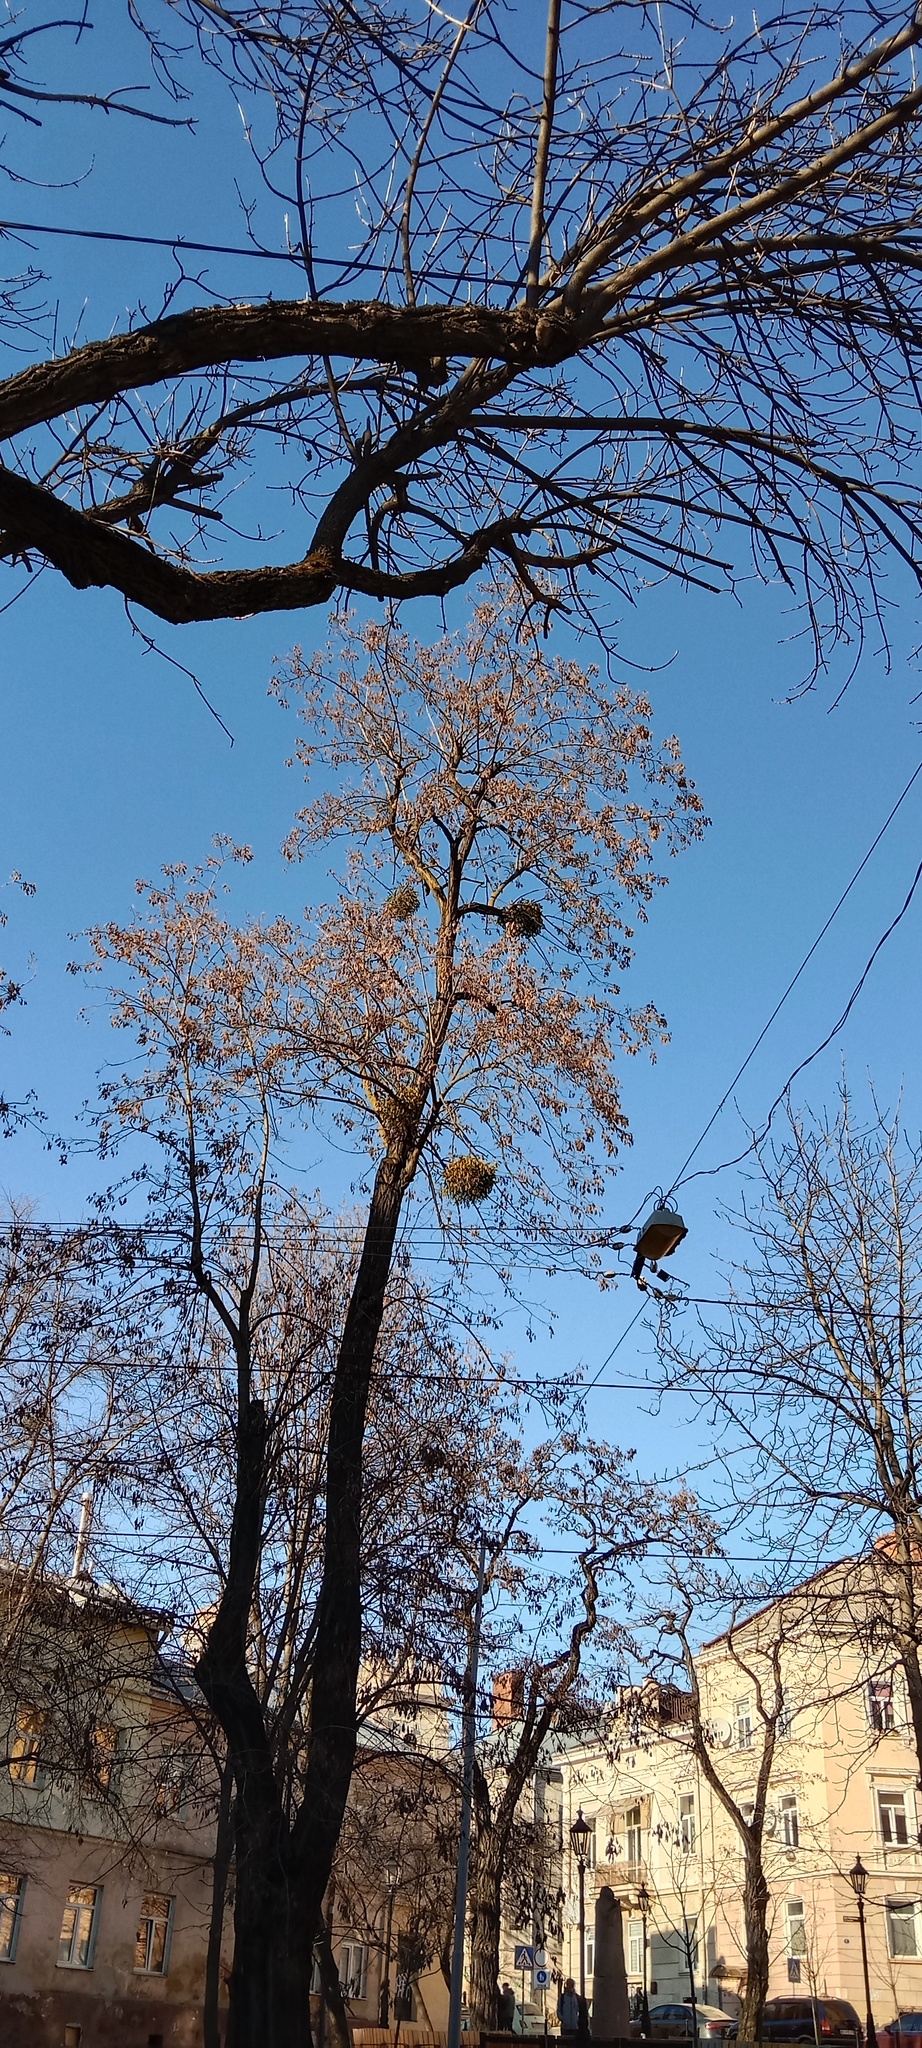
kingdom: Plantae
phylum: Tracheophyta
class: Magnoliopsida
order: Santalales
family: Viscaceae
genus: Viscum
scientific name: Viscum album
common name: Mistletoe
